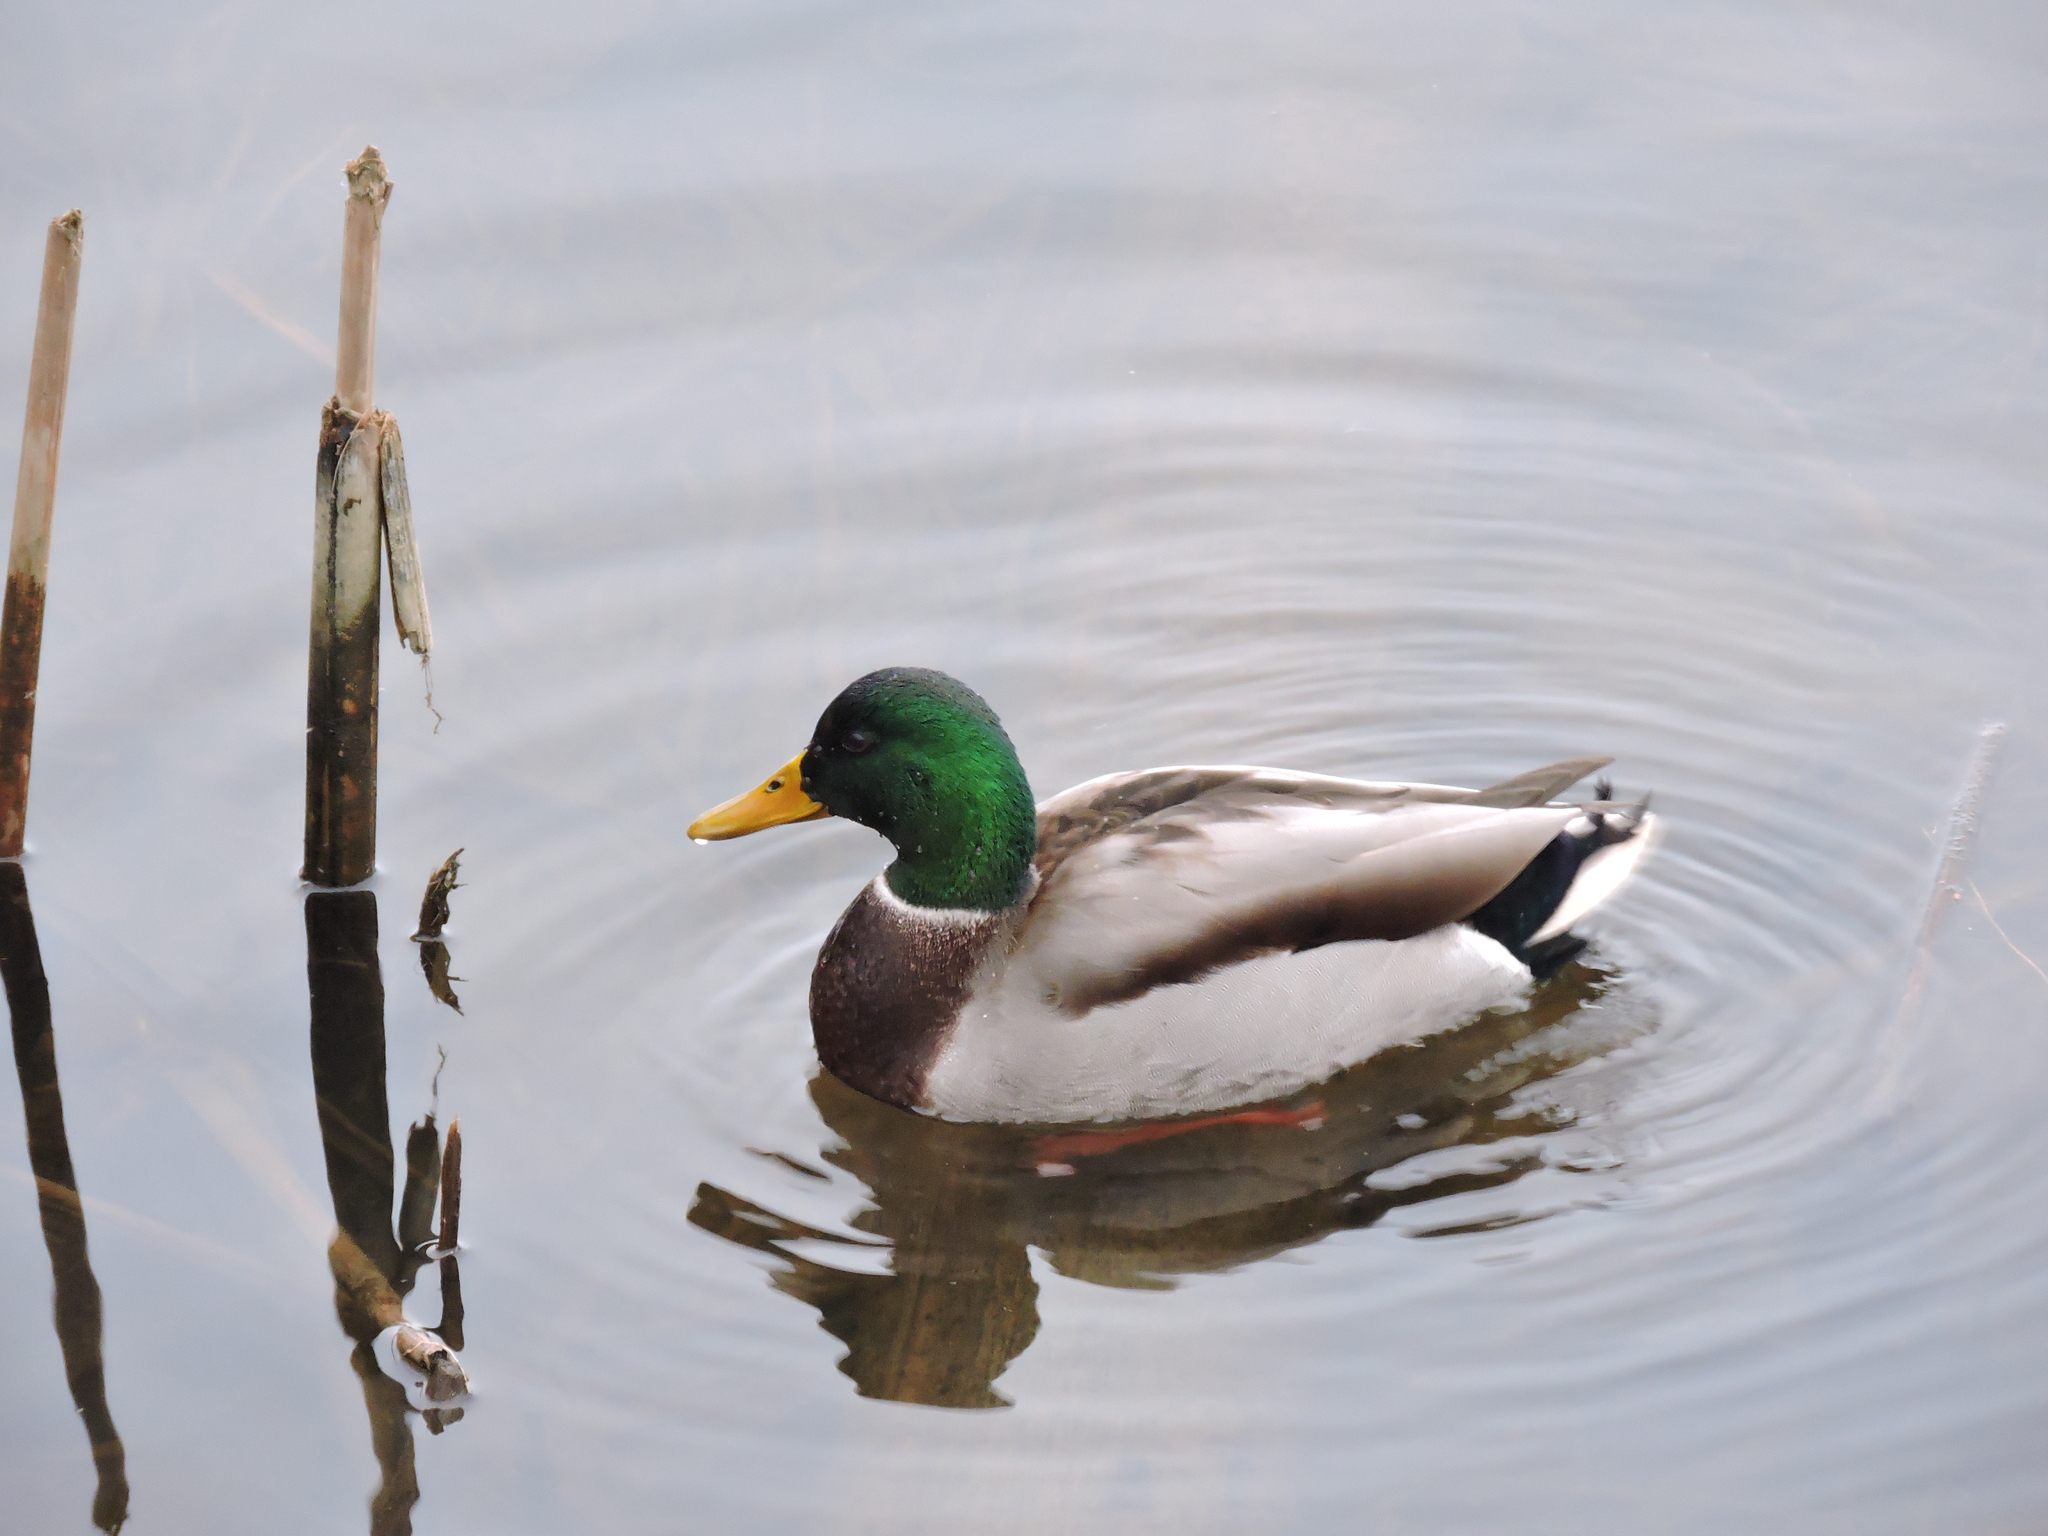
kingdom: Animalia
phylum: Chordata
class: Aves
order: Anseriformes
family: Anatidae
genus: Anas
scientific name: Anas platyrhynchos
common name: Mallard
